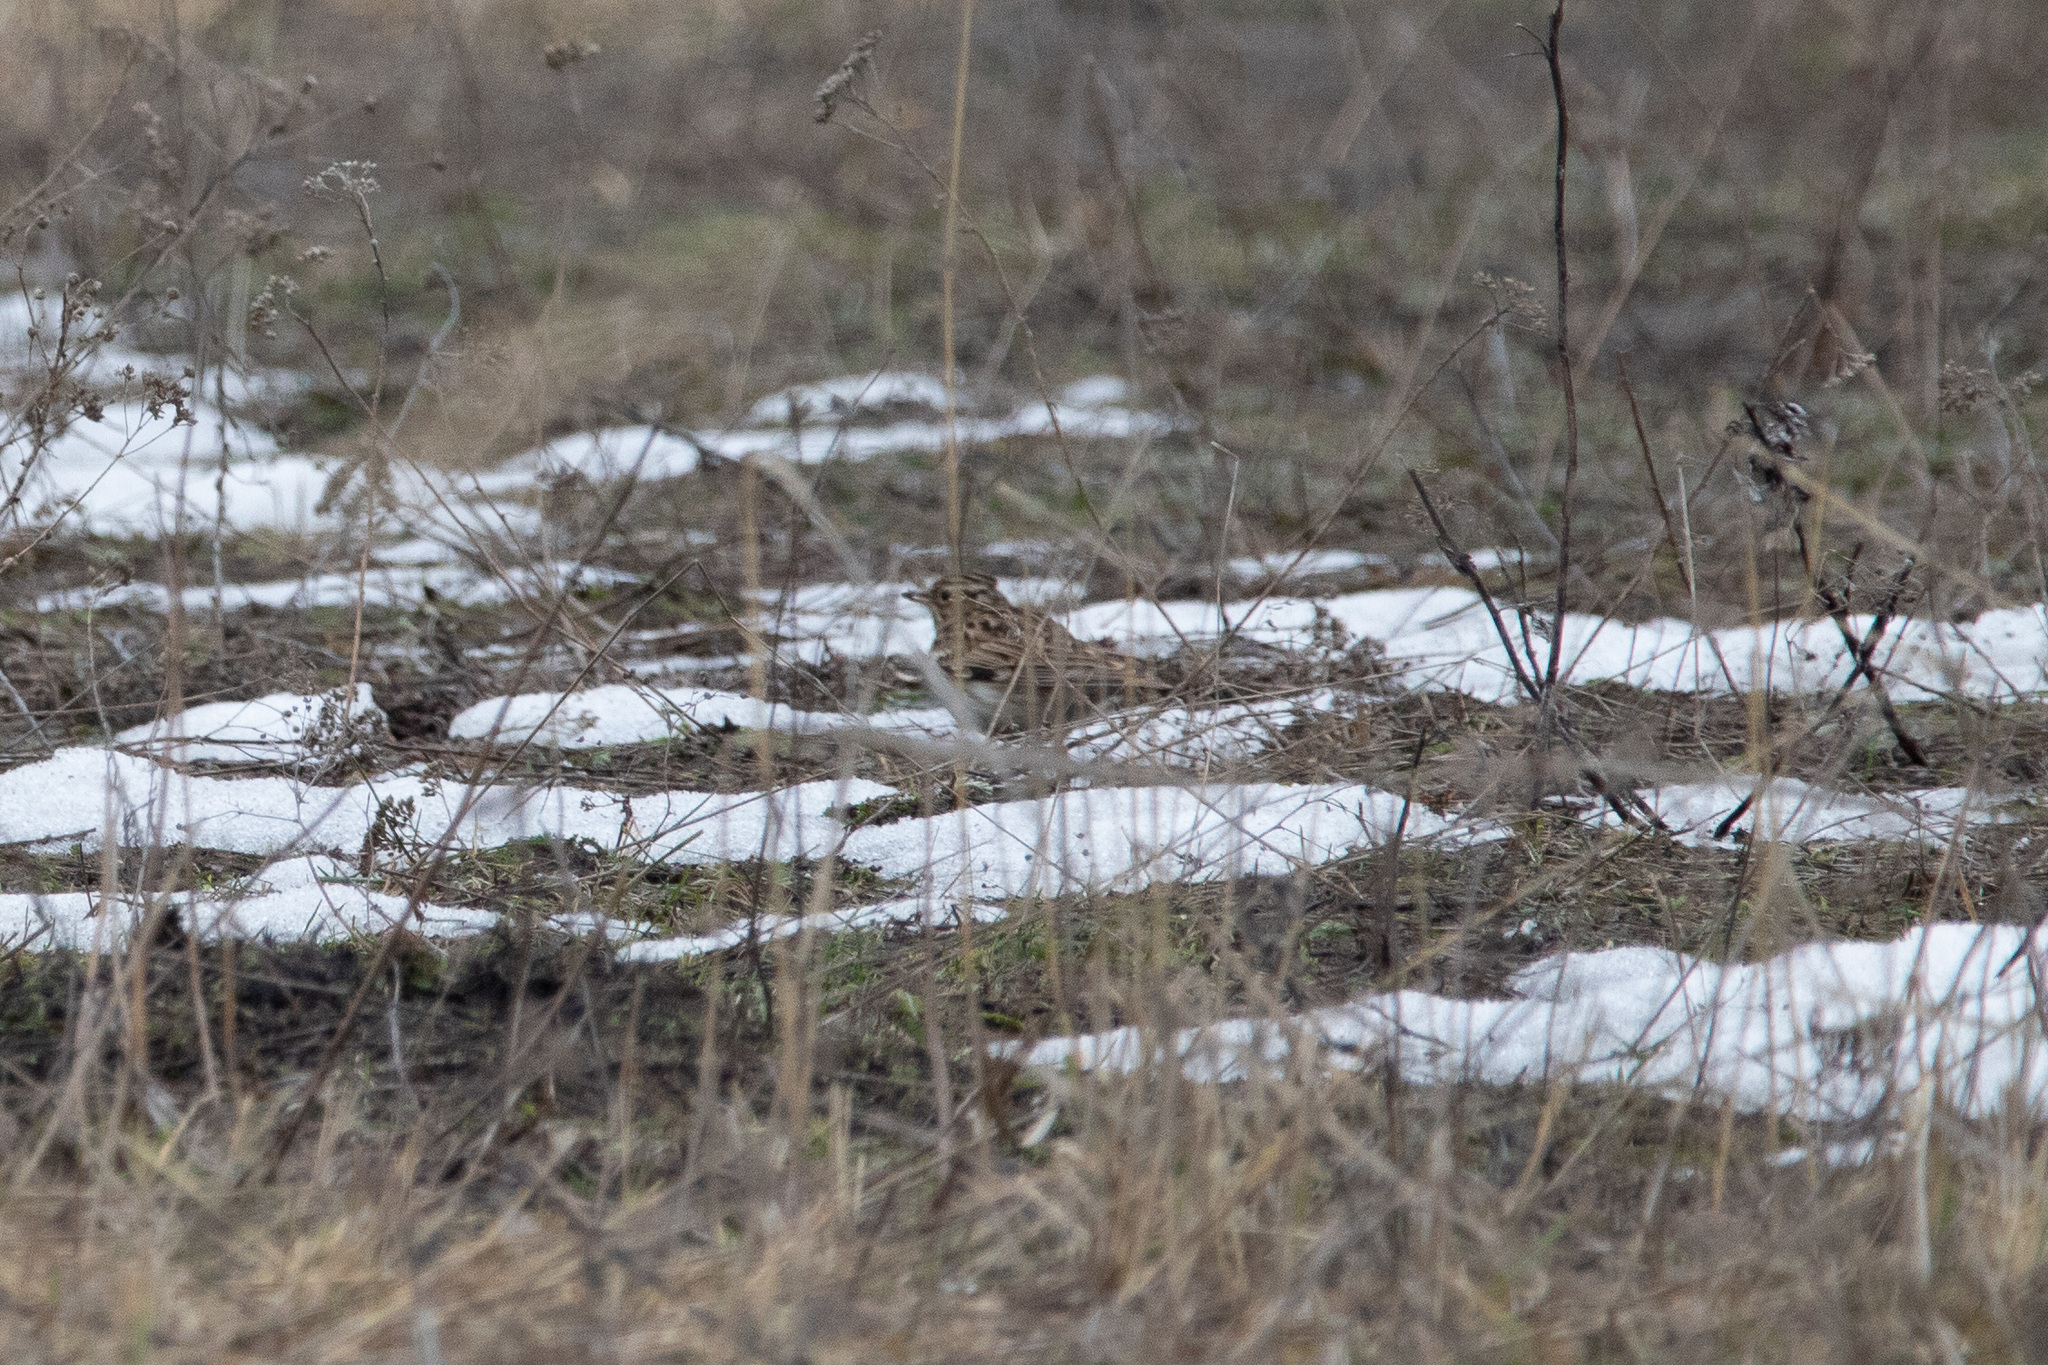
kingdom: Animalia
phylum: Chordata
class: Aves
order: Passeriformes
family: Alaudidae
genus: Lullula
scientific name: Lullula arborea
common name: Woodlark
